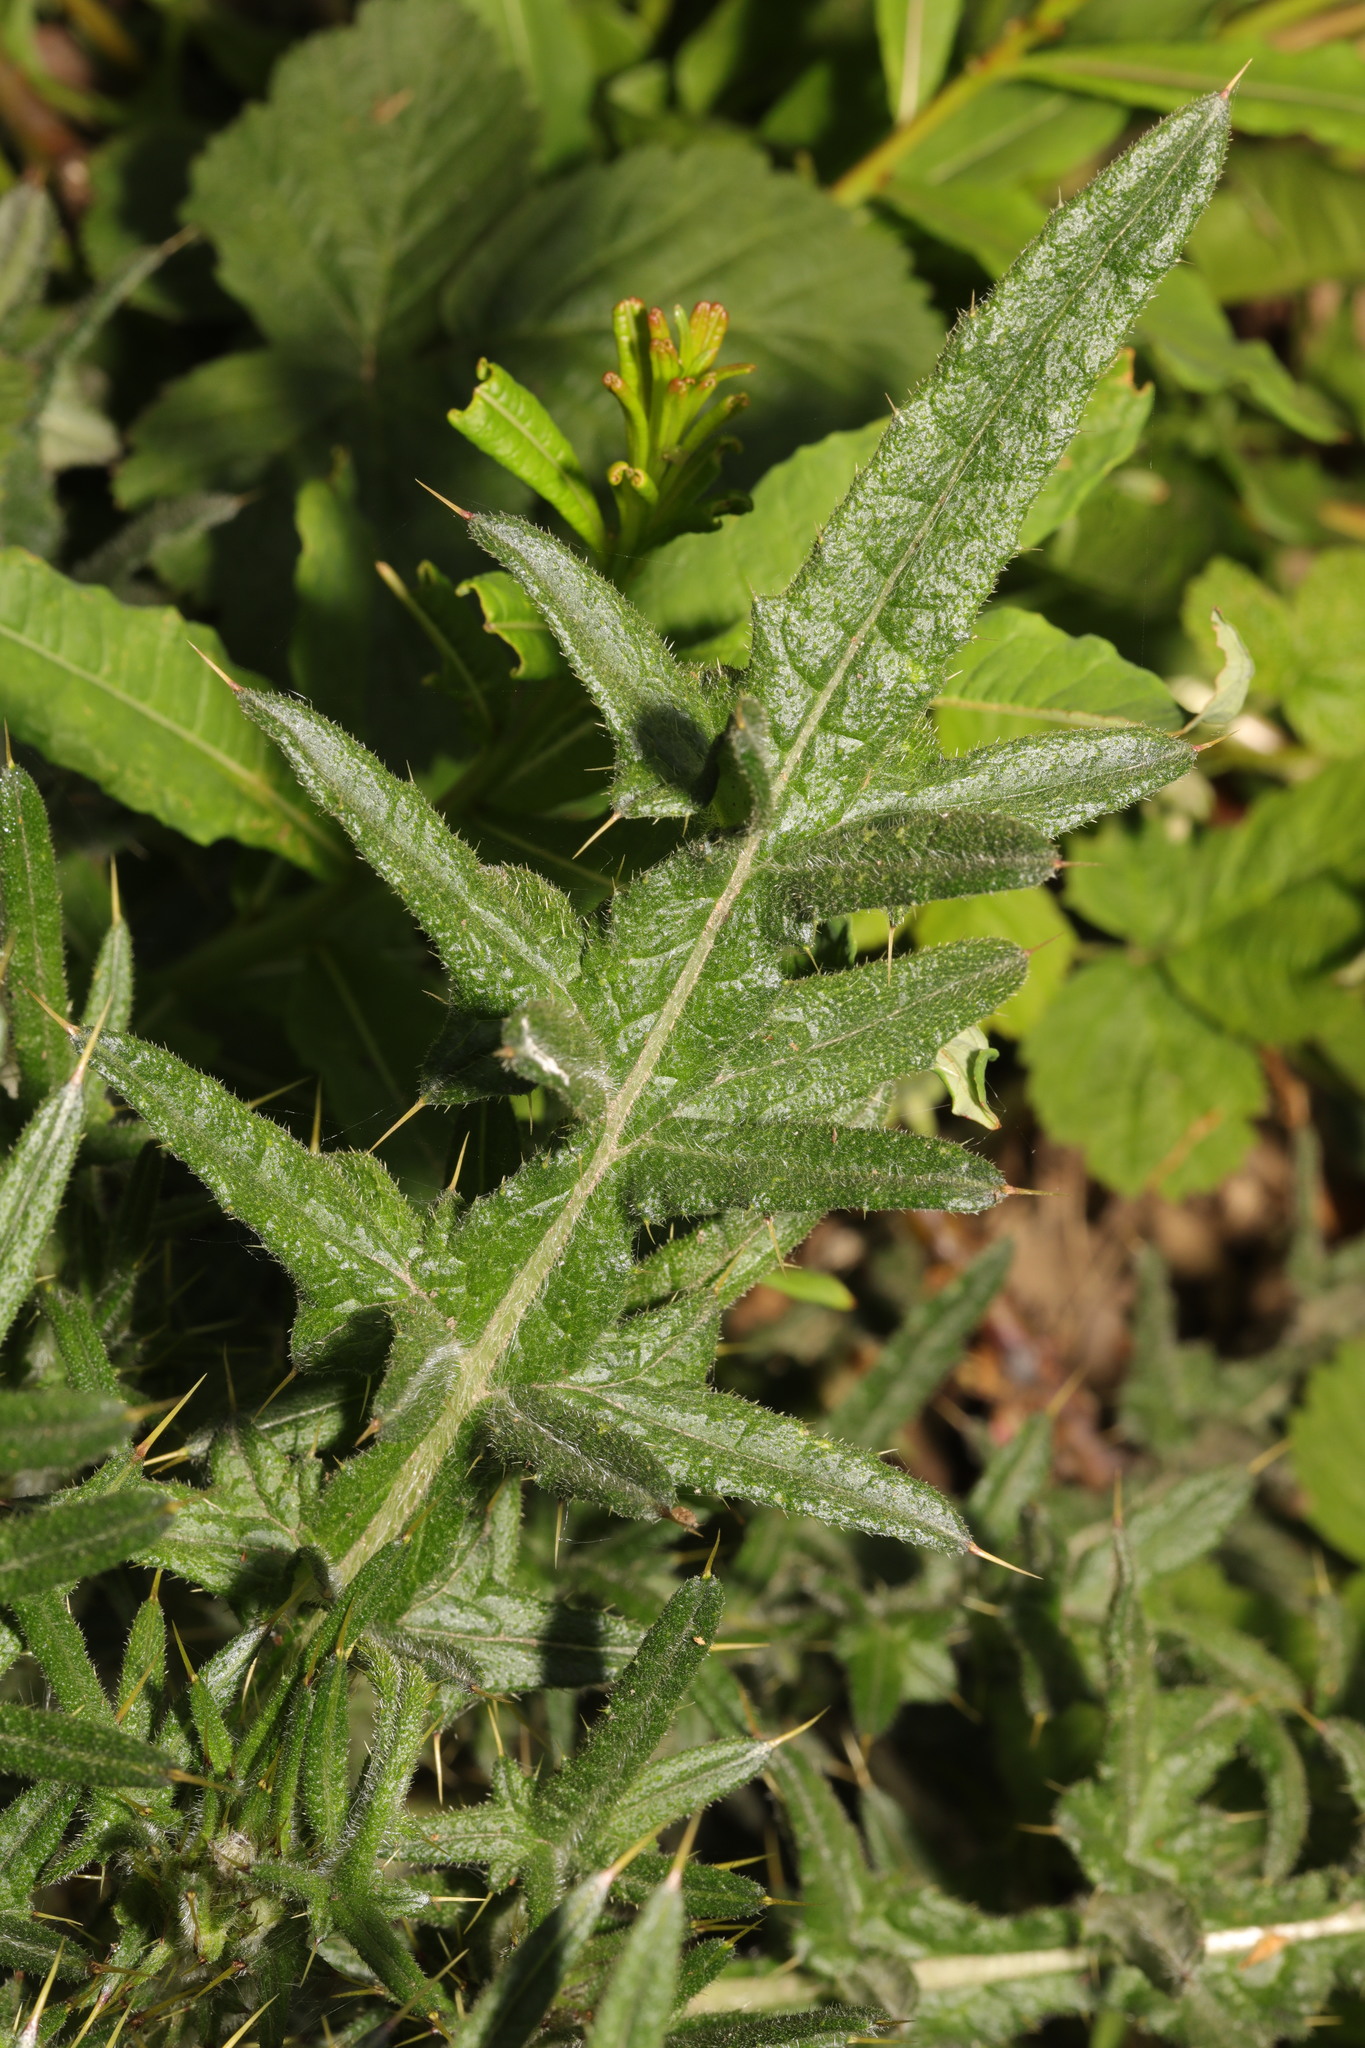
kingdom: Plantae
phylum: Tracheophyta
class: Magnoliopsida
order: Asterales
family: Asteraceae
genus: Cirsium
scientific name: Cirsium vulgare
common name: Bull thistle
